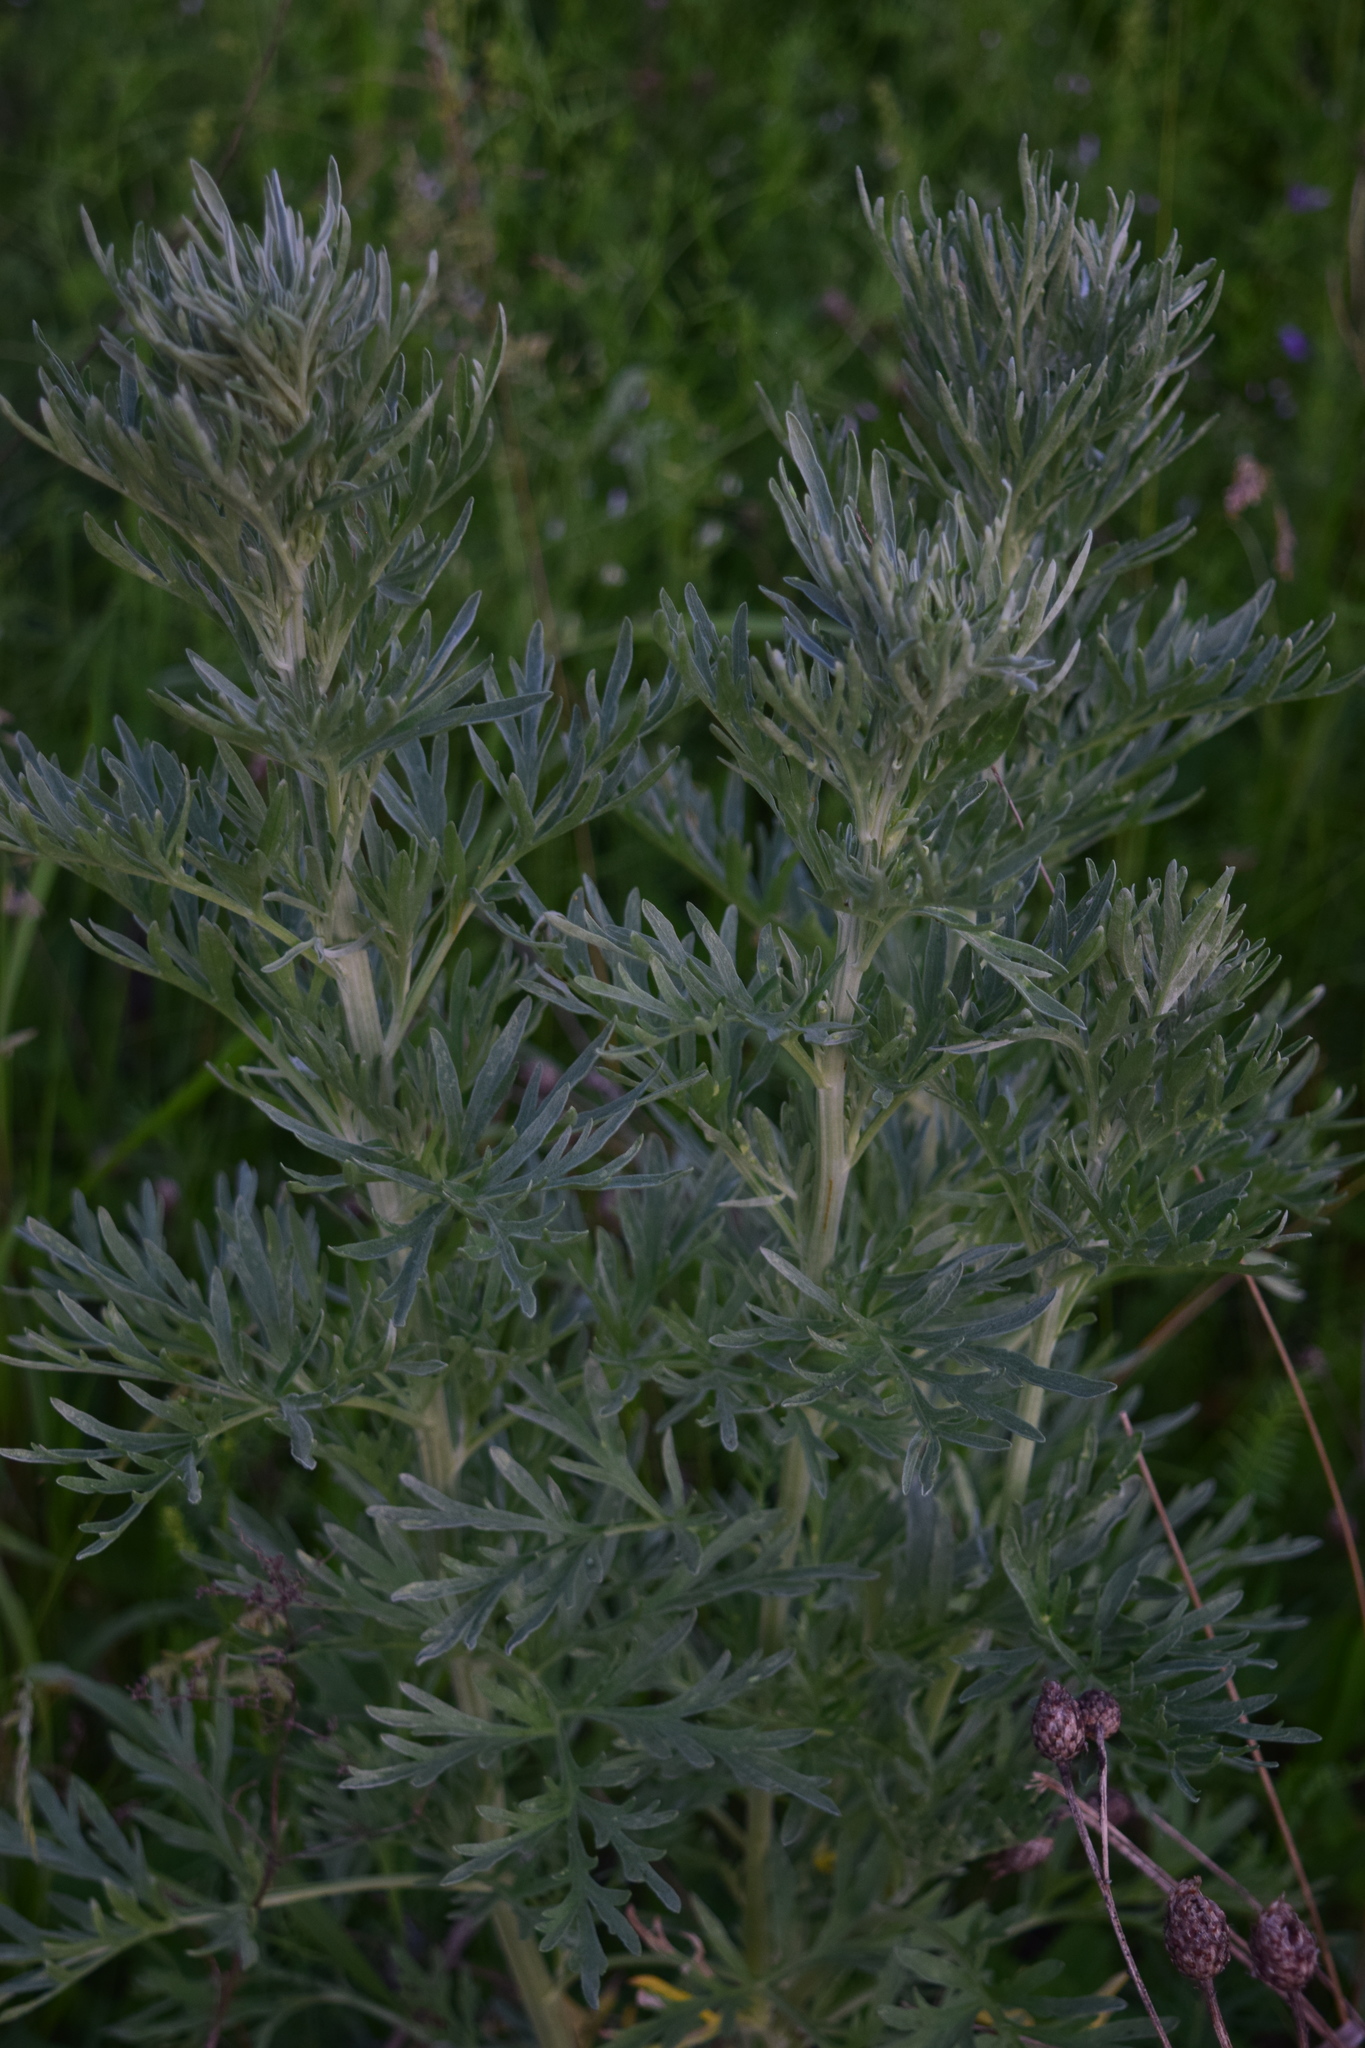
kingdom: Plantae
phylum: Tracheophyta
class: Magnoliopsida
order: Asterales
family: Asteraceae
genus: Artemisia
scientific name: Artemisia absinthium
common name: Wormwood
